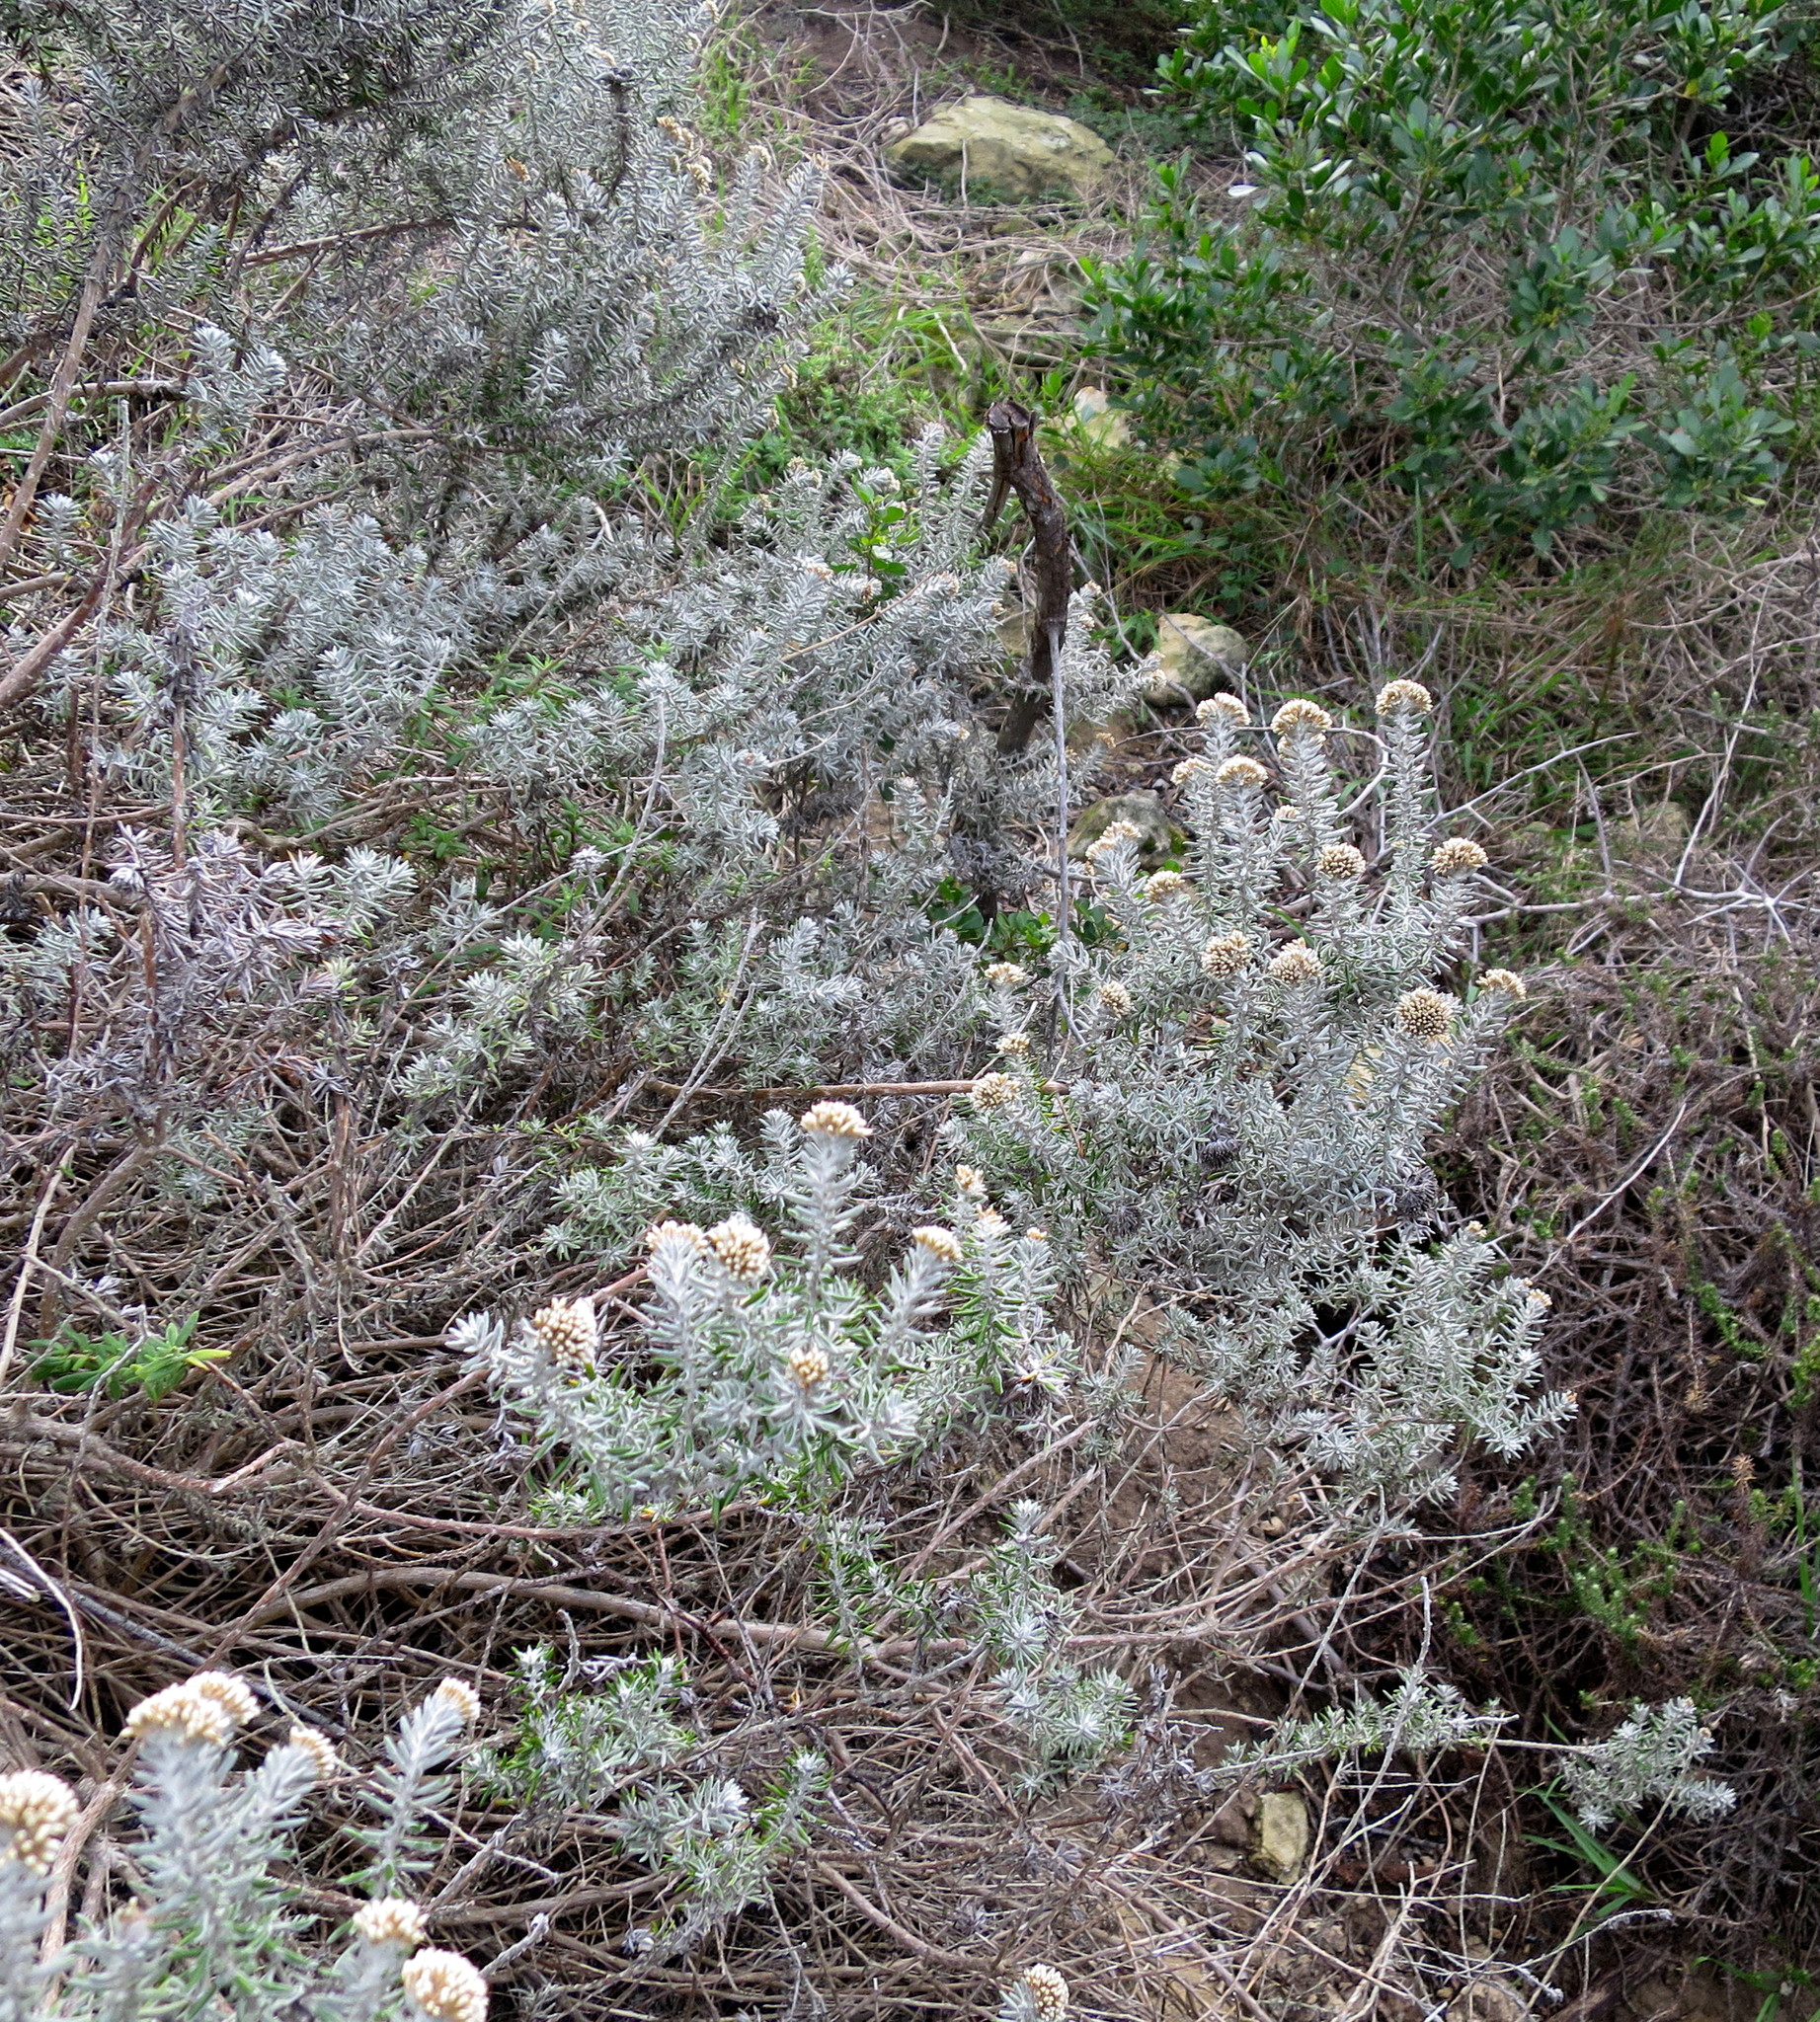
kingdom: Plantae
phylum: Tracheophyta
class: Magnoliopsida
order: Asterales
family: Asteraceae
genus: Metalasia
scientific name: Metalasia muricata
